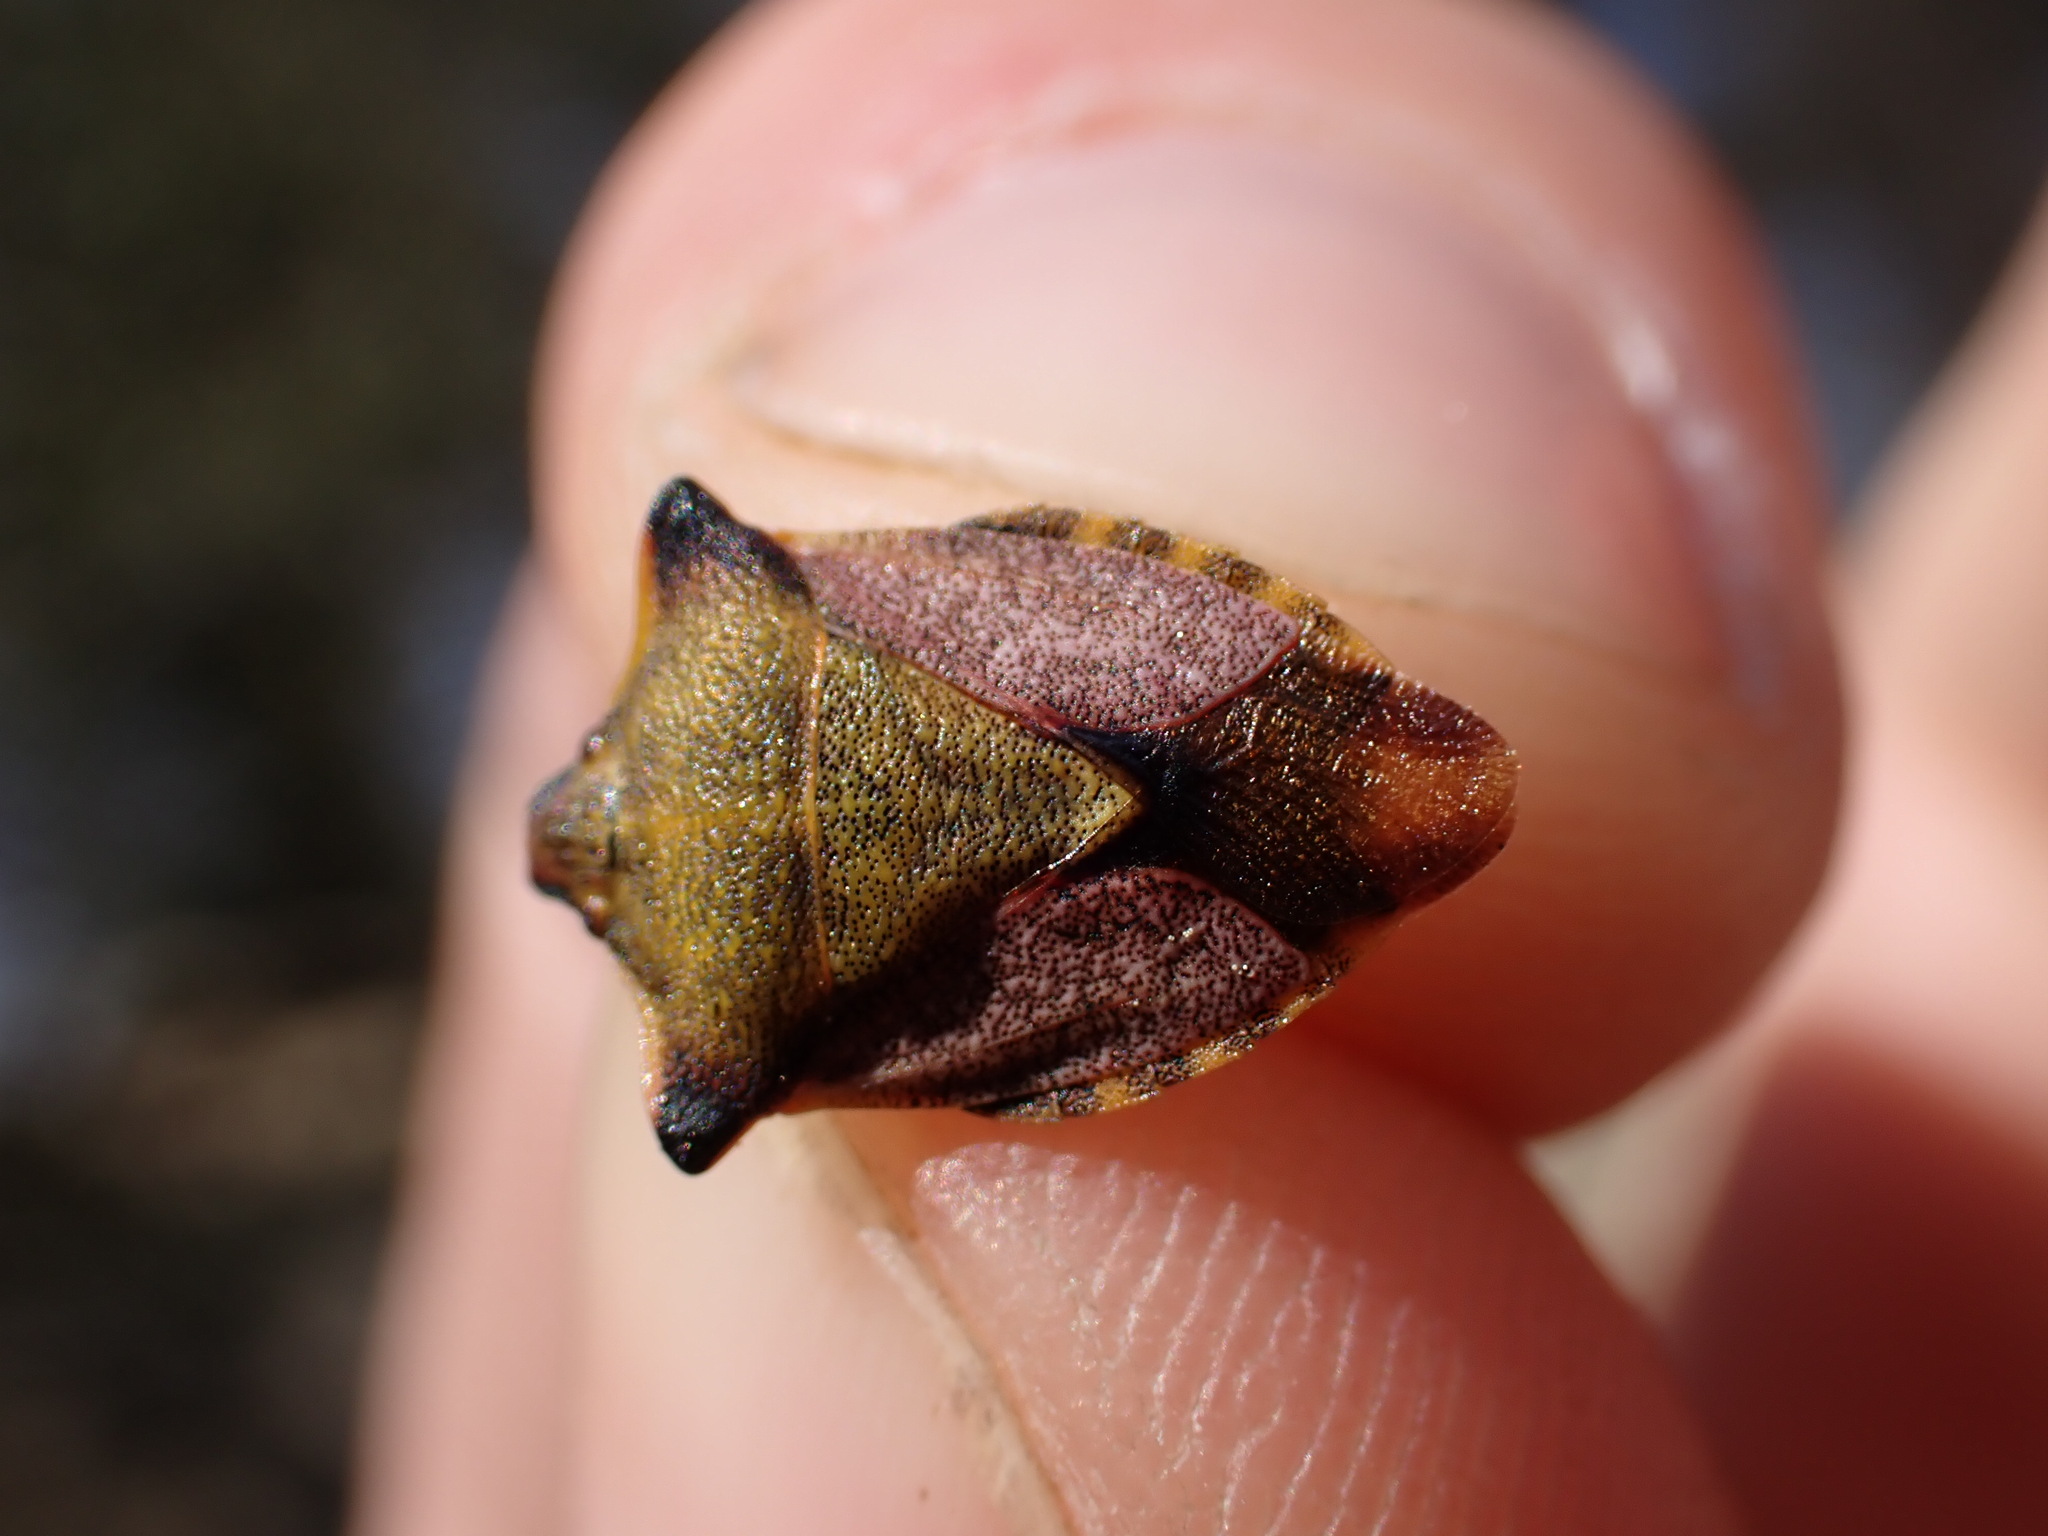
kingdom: Animalia
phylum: Arthropoda
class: Insecta
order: Hemiptera
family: Pentatomidae
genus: Carpocoris
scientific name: Carpocoris mediterraneus
